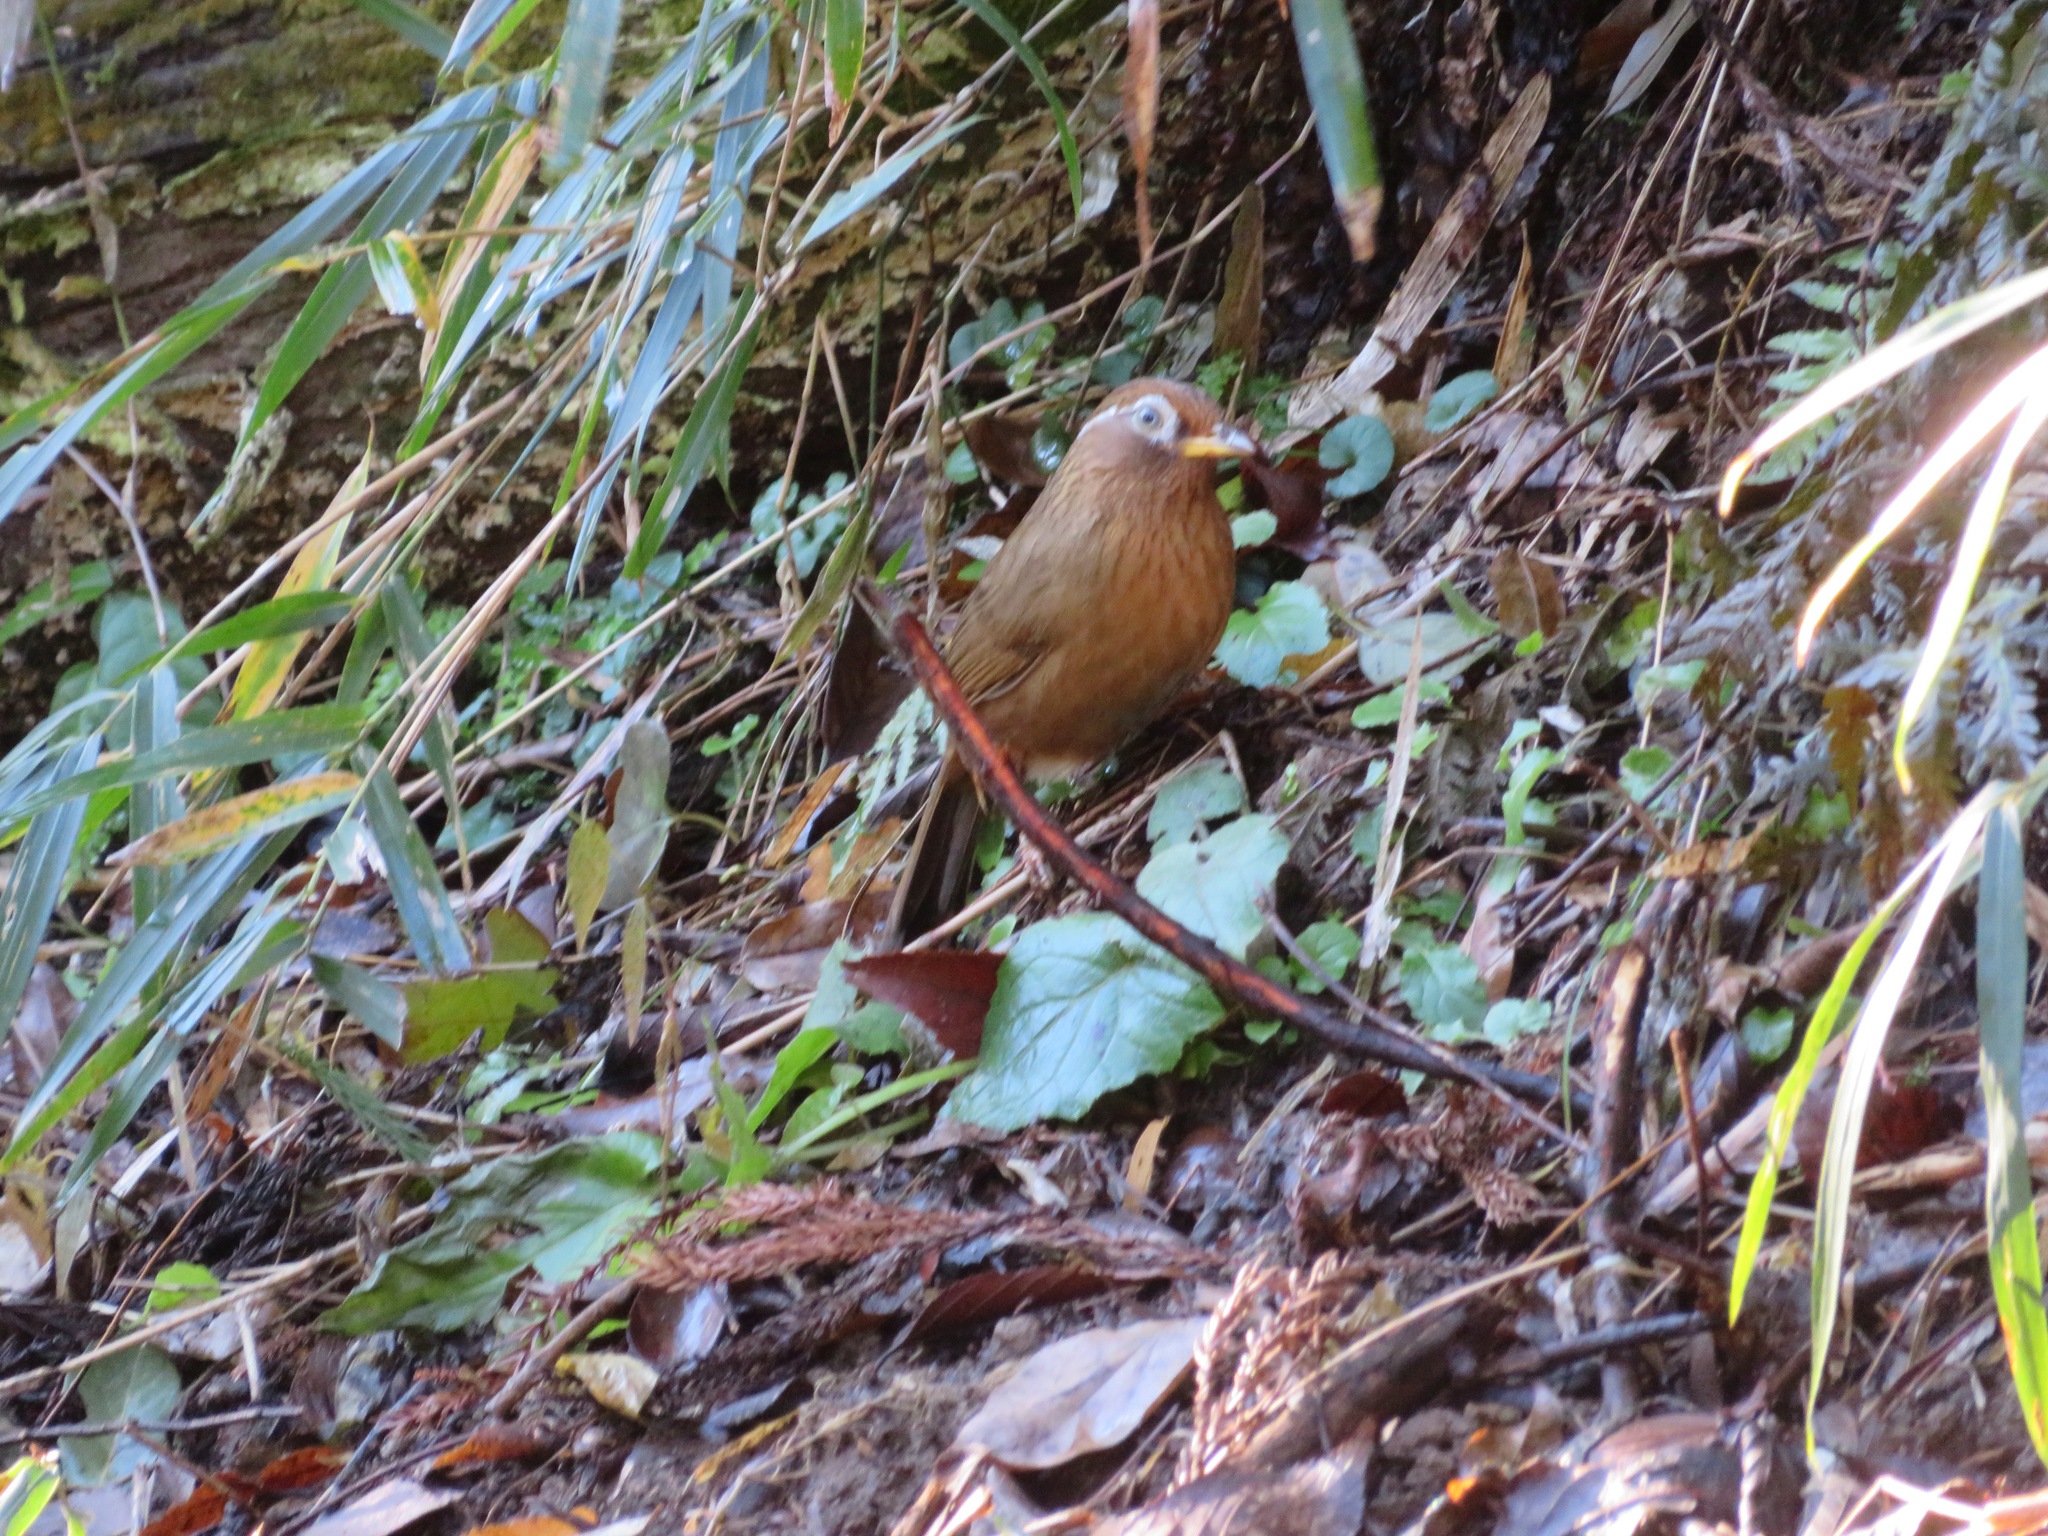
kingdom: Animalia
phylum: Chordata
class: Aves
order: Passeriformes
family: Leiothrichidae
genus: Garrulax
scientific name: Garrulax canorus
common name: Chinese hwamei
